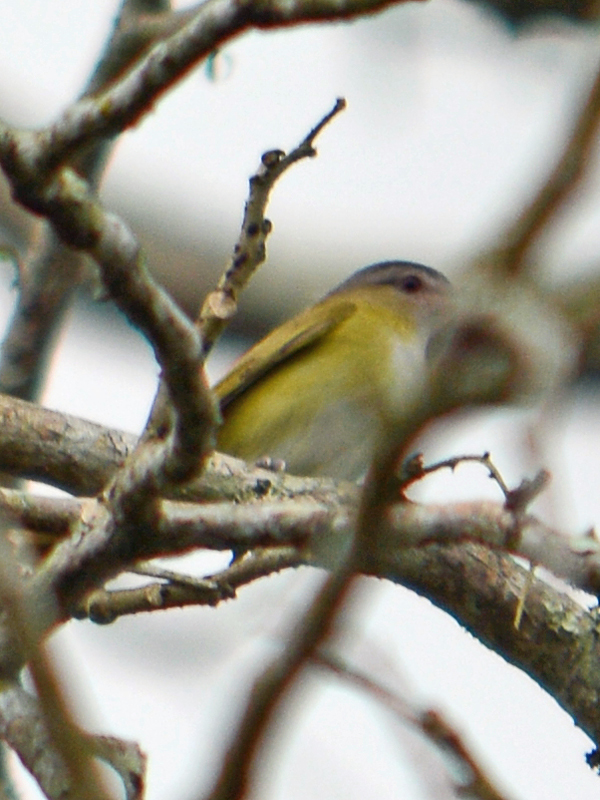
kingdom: Animalia
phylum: Chordata
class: Aves
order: Passeriformes
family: Vireonidae
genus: Vireo
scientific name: Vireo flavoviridis
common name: Yellow-green vireo
